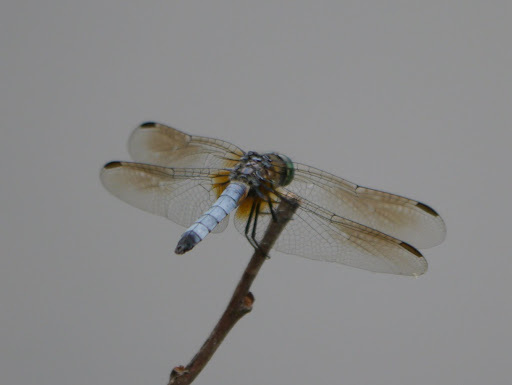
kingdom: Animalia
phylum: Arthropoda
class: Insecta
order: Odonata
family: Libellulidae
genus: Pachydiplax
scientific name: Pachydiplax longipennis
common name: Blue dasher
